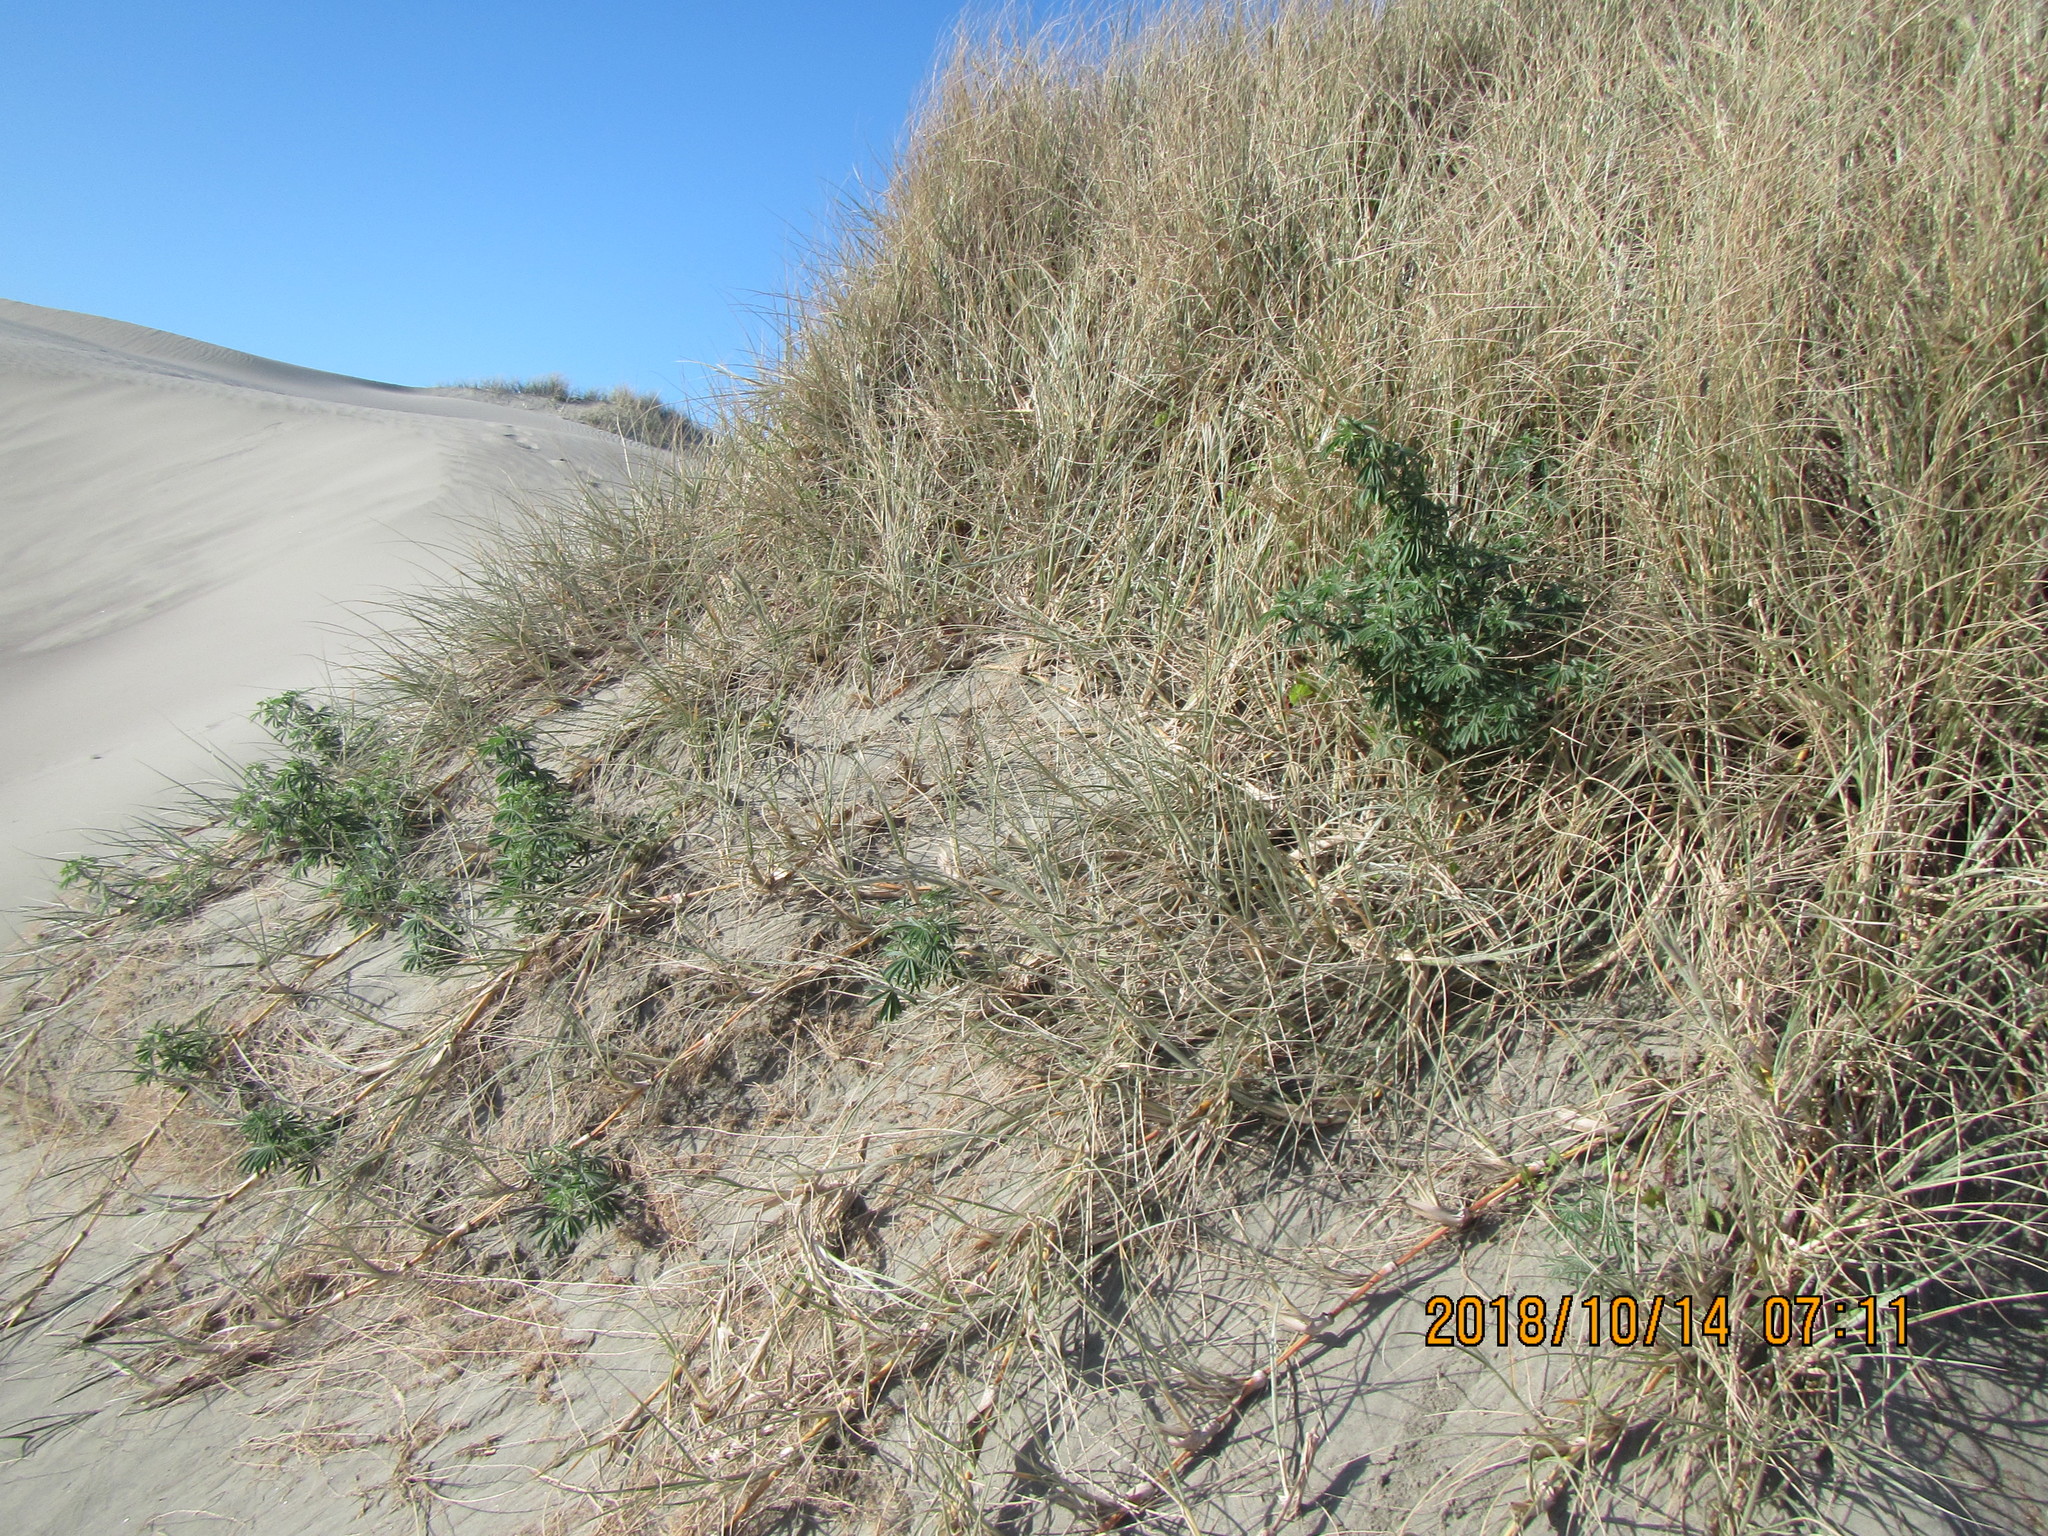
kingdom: Plantae
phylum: Tracheophyta
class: Magnoliopsida
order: Fabales
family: Fabaceae
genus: Lupinus
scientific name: Lupinus arboreus
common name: Yellow bush lupine
